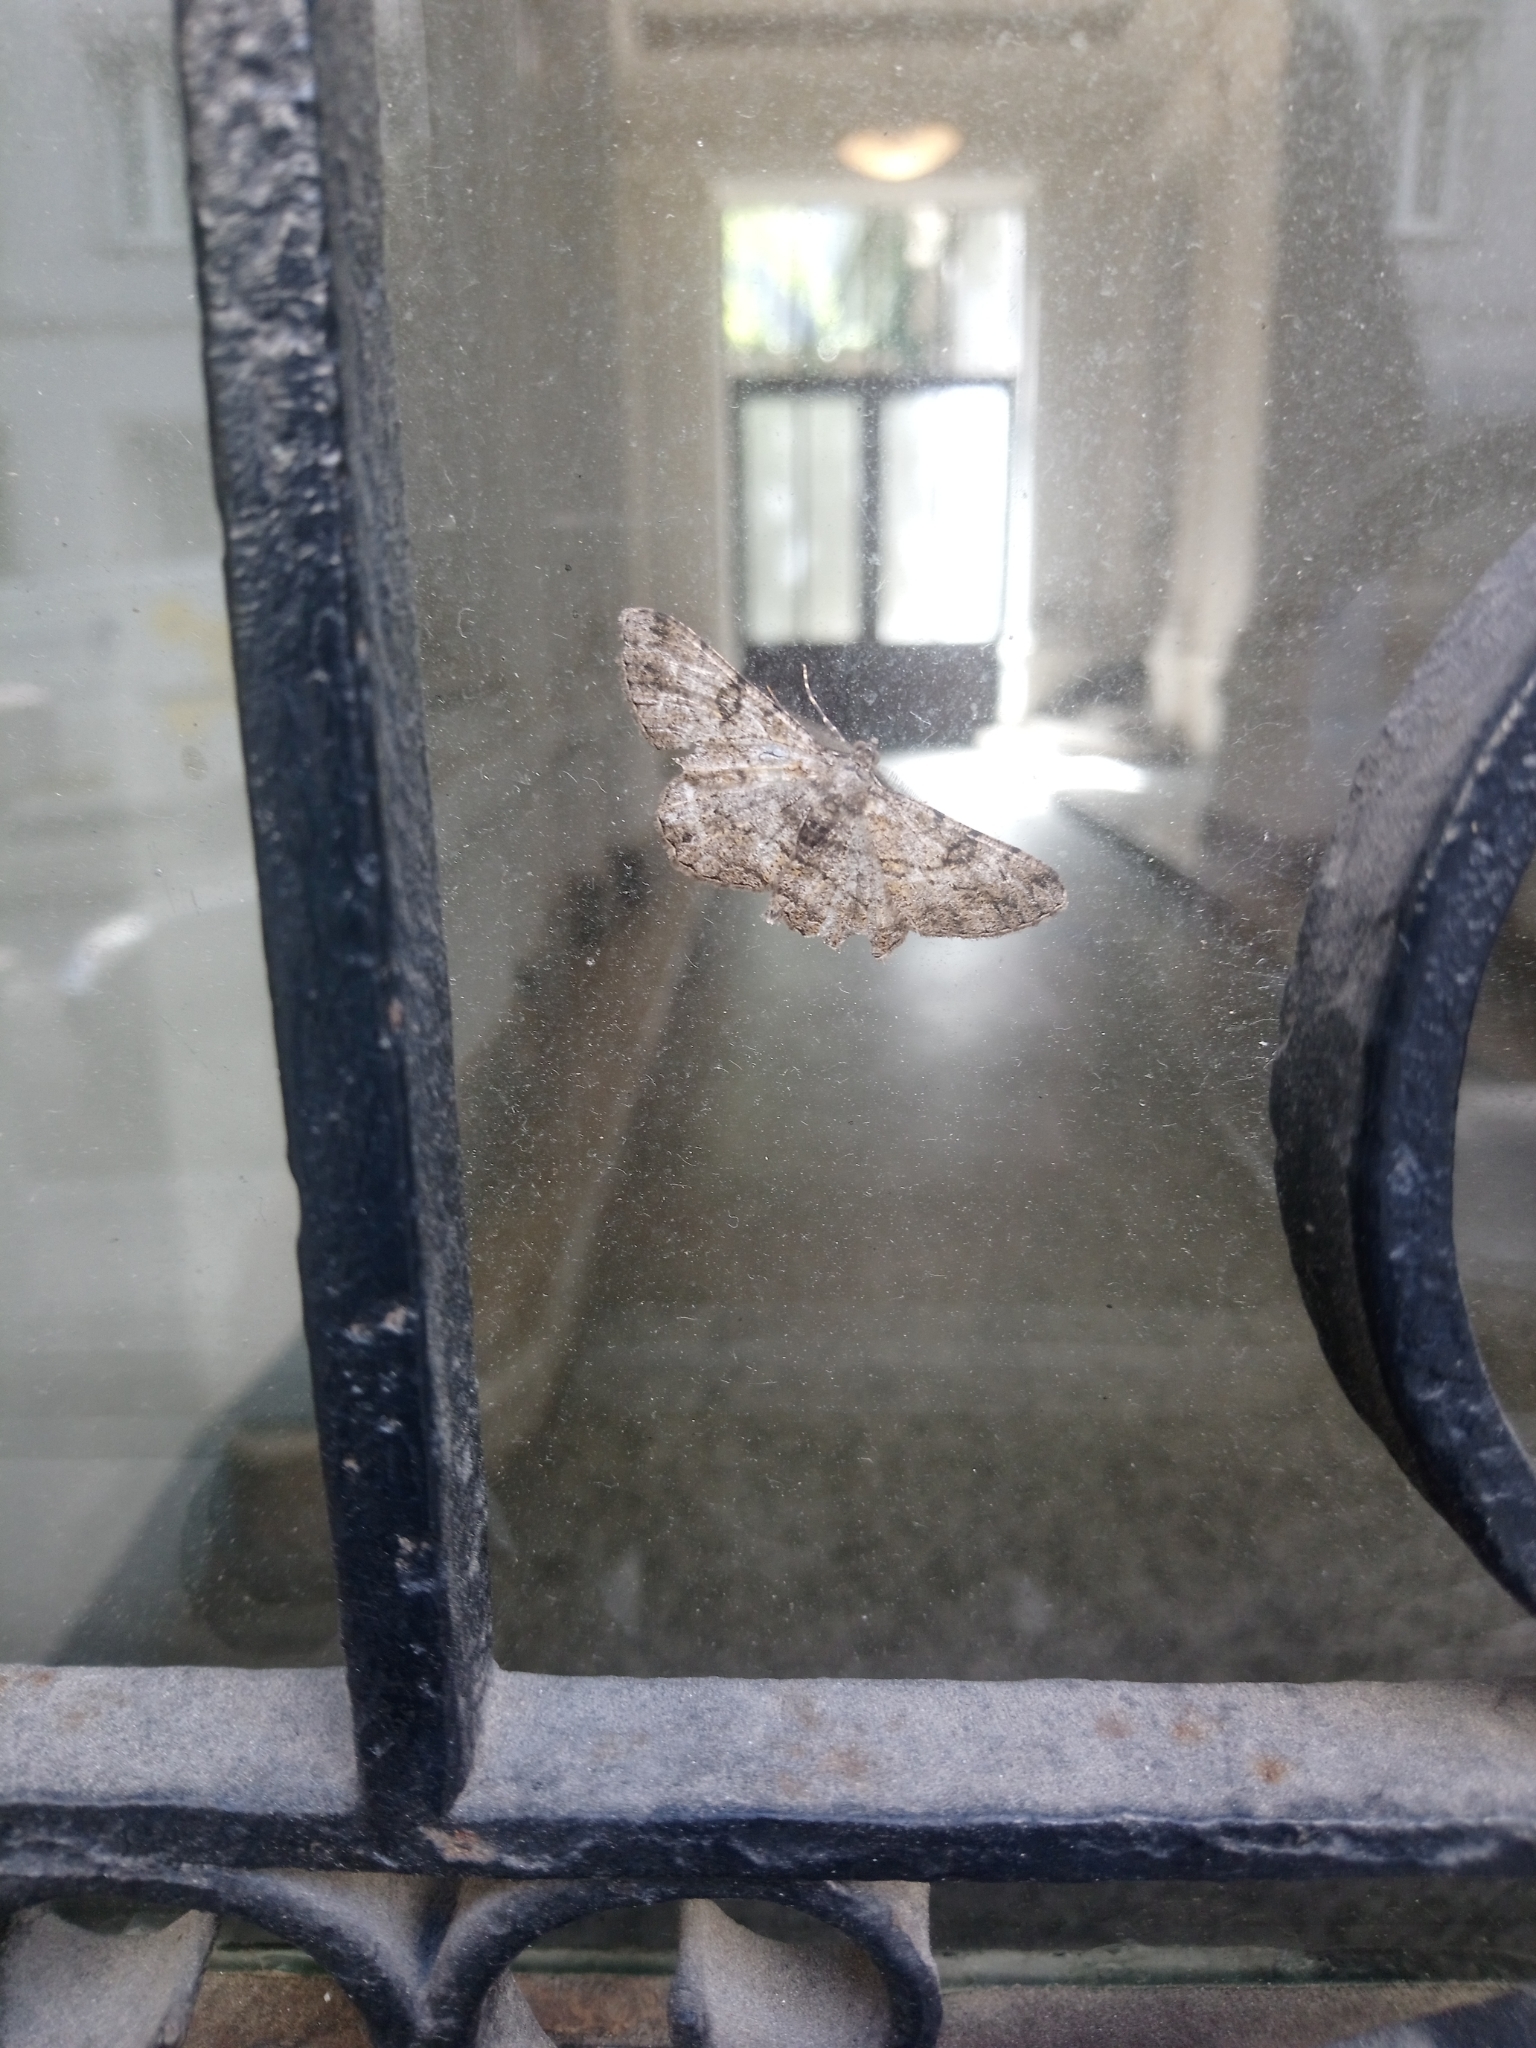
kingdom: Animalia
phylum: Arthropoda
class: Insecta
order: Lepidoptera
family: Geometridae
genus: Peribatodes
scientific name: Peribatodes rhomboidaria
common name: Willow beauty
